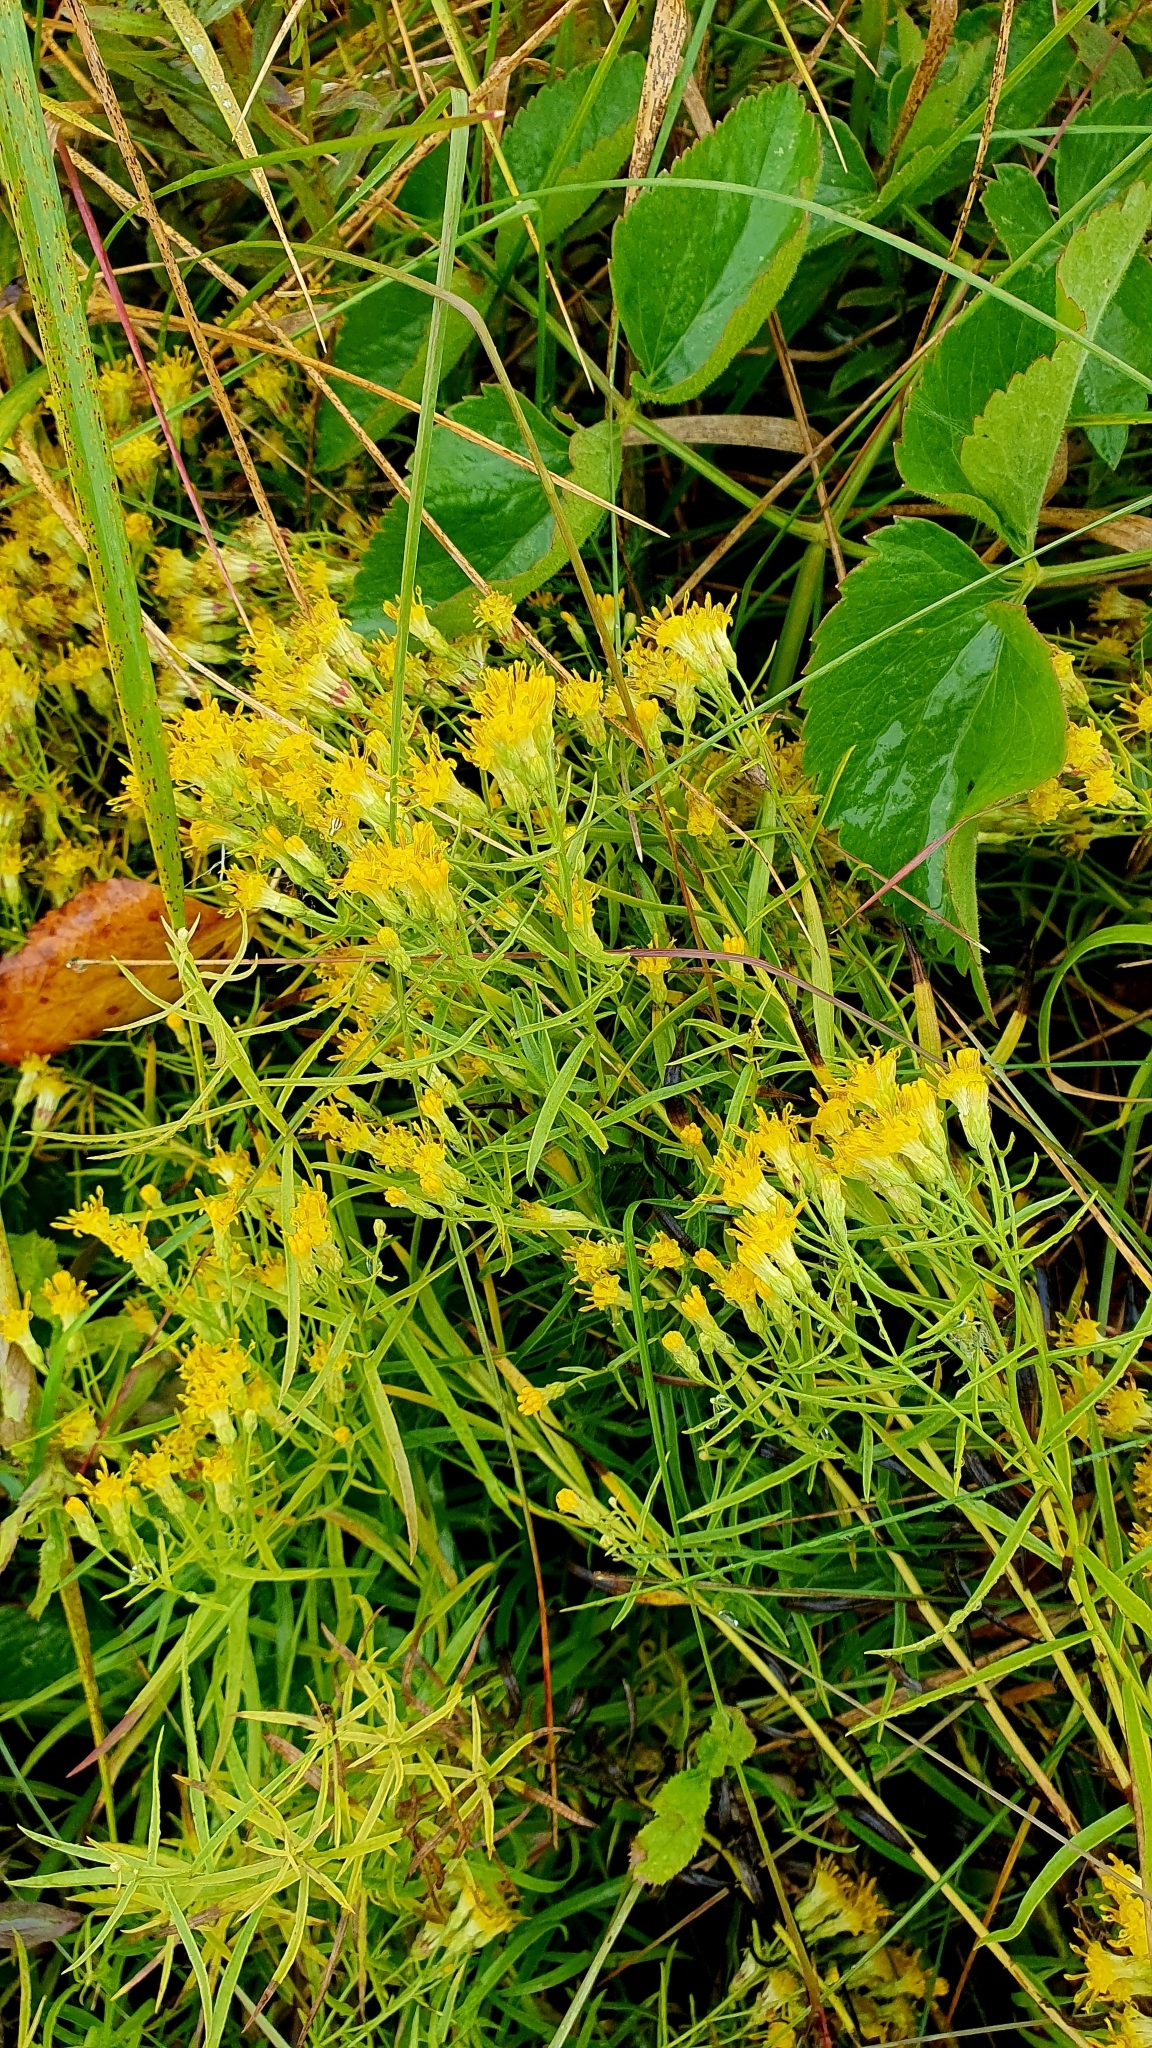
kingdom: Plantae
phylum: Tracheophyta
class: Magnoliopsida
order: Asterales
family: Asteraceae
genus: Galatella
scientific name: Galatella biflora
